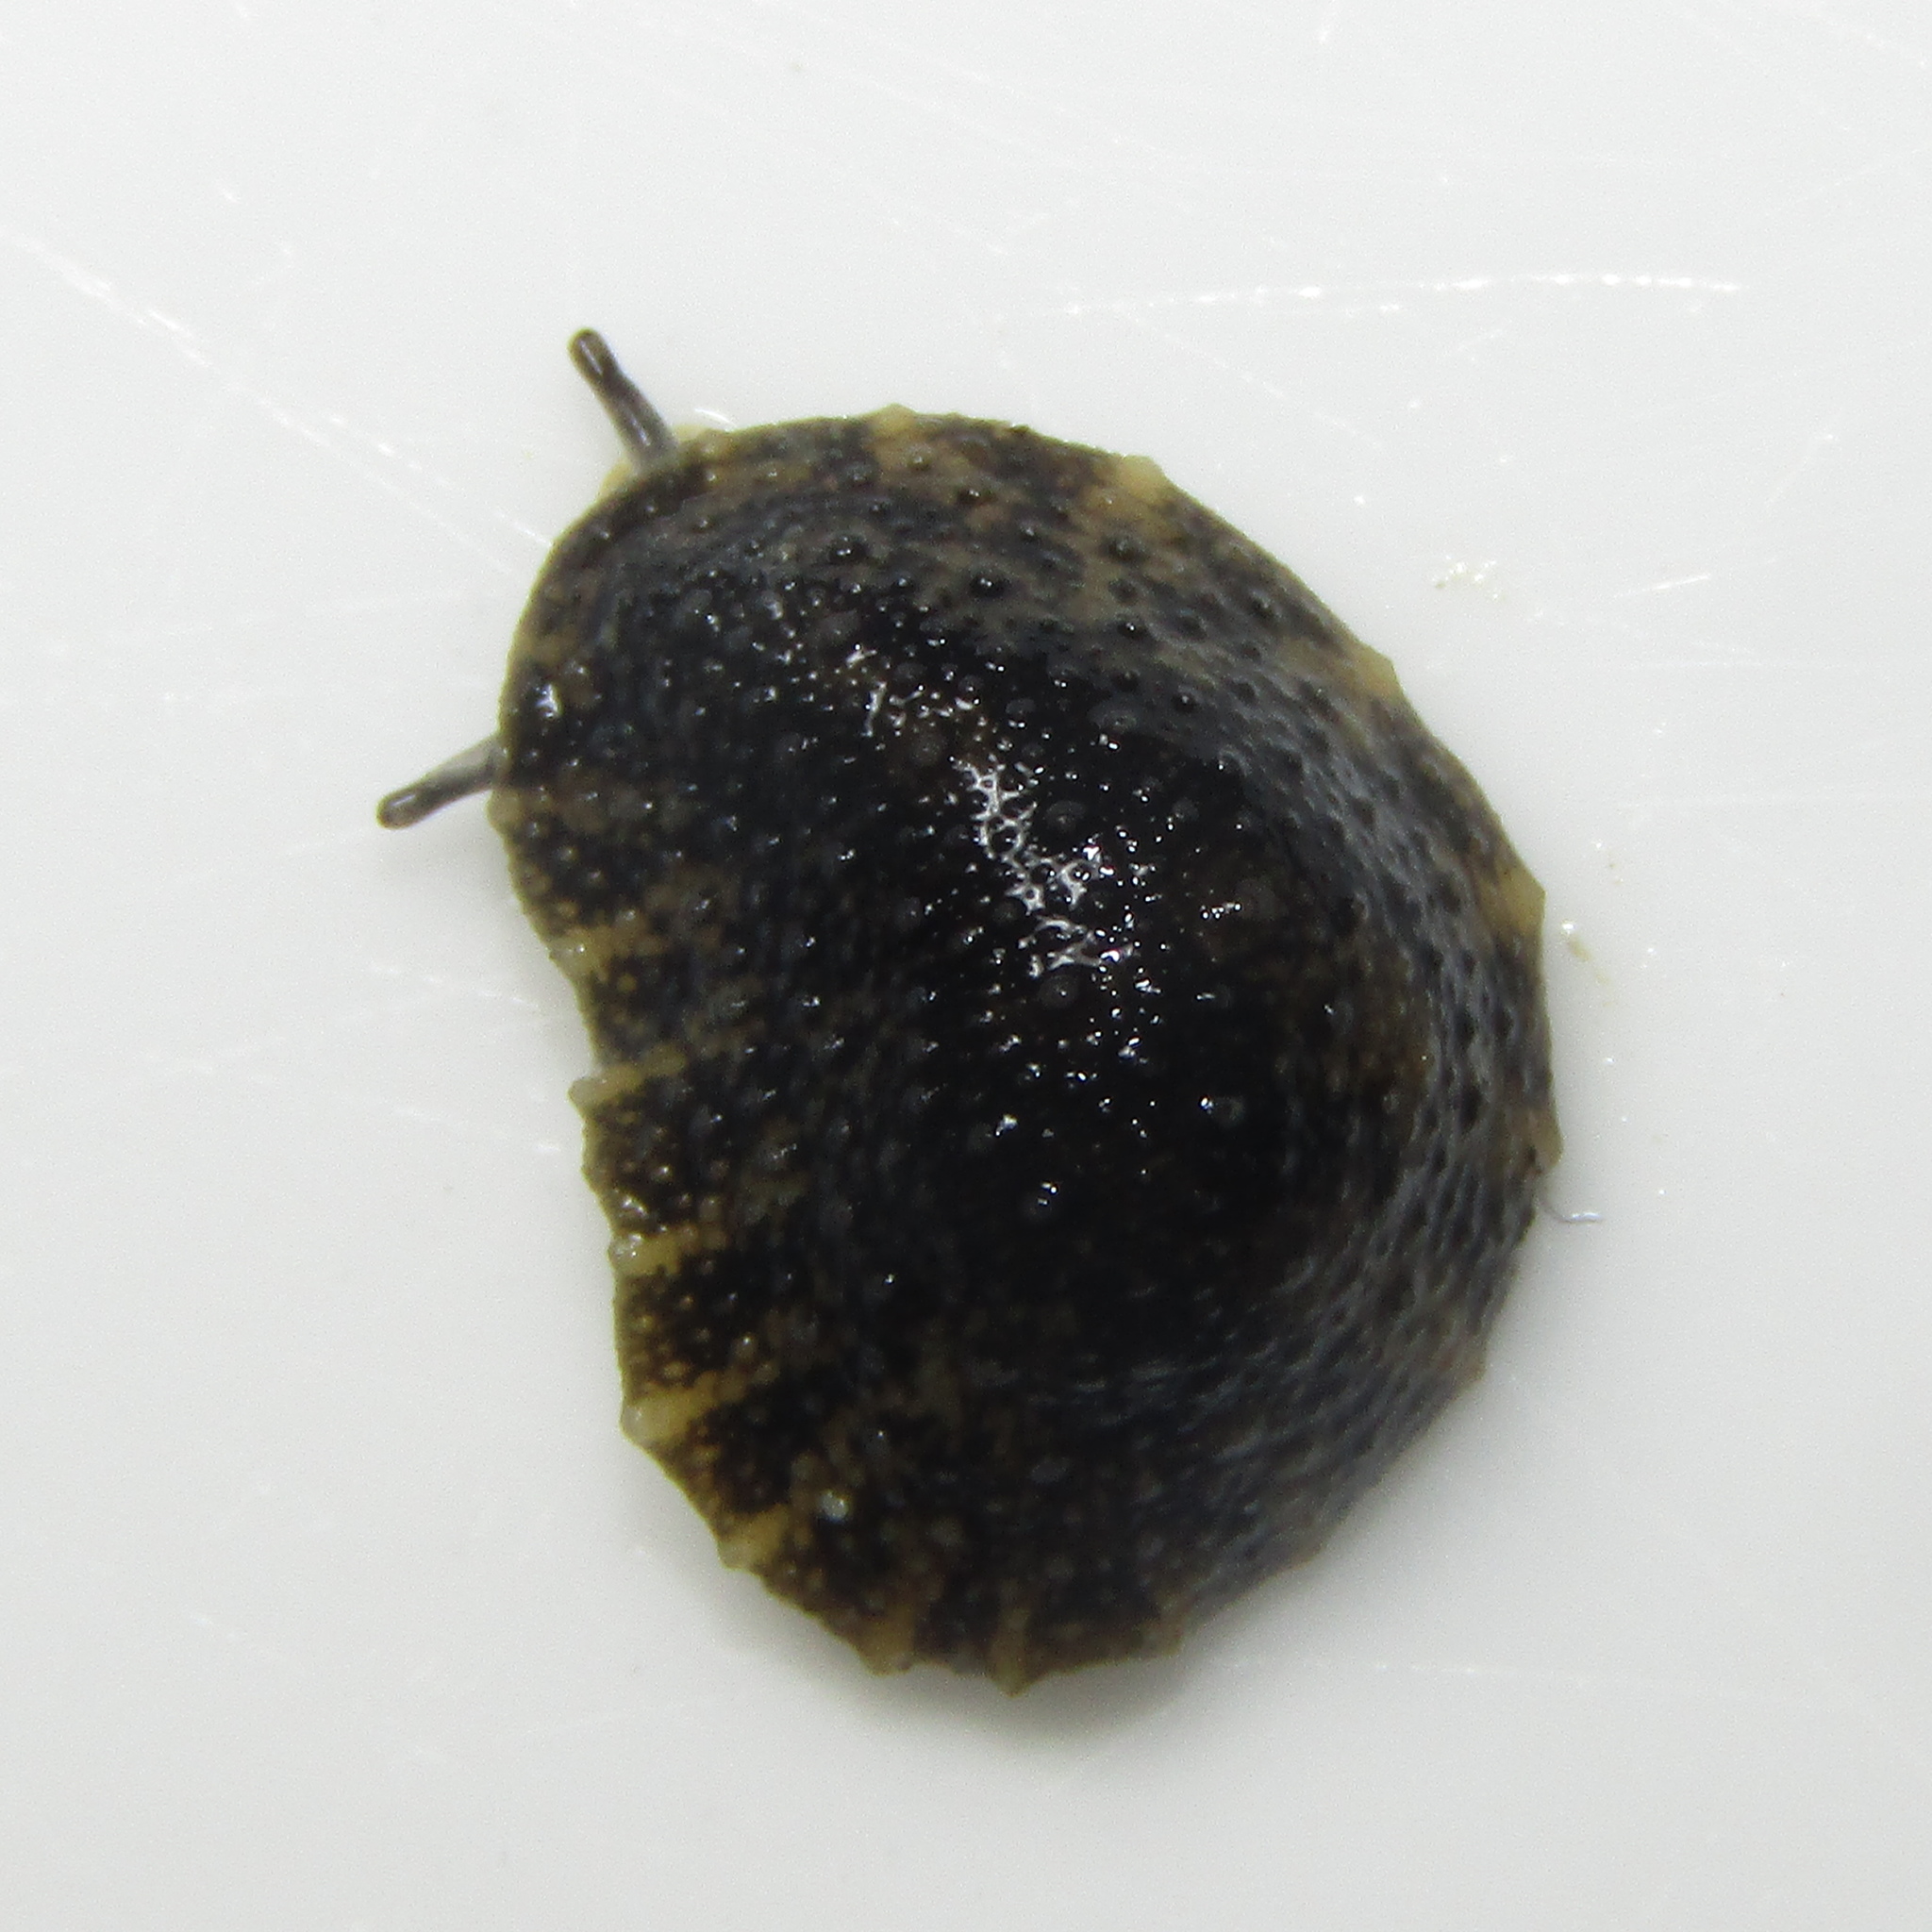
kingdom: Animalia
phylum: Mollusca
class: Gastropoda
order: Systellommatophora
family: Onchidiidae
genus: Onchidella
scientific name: Onchidella nigricans
